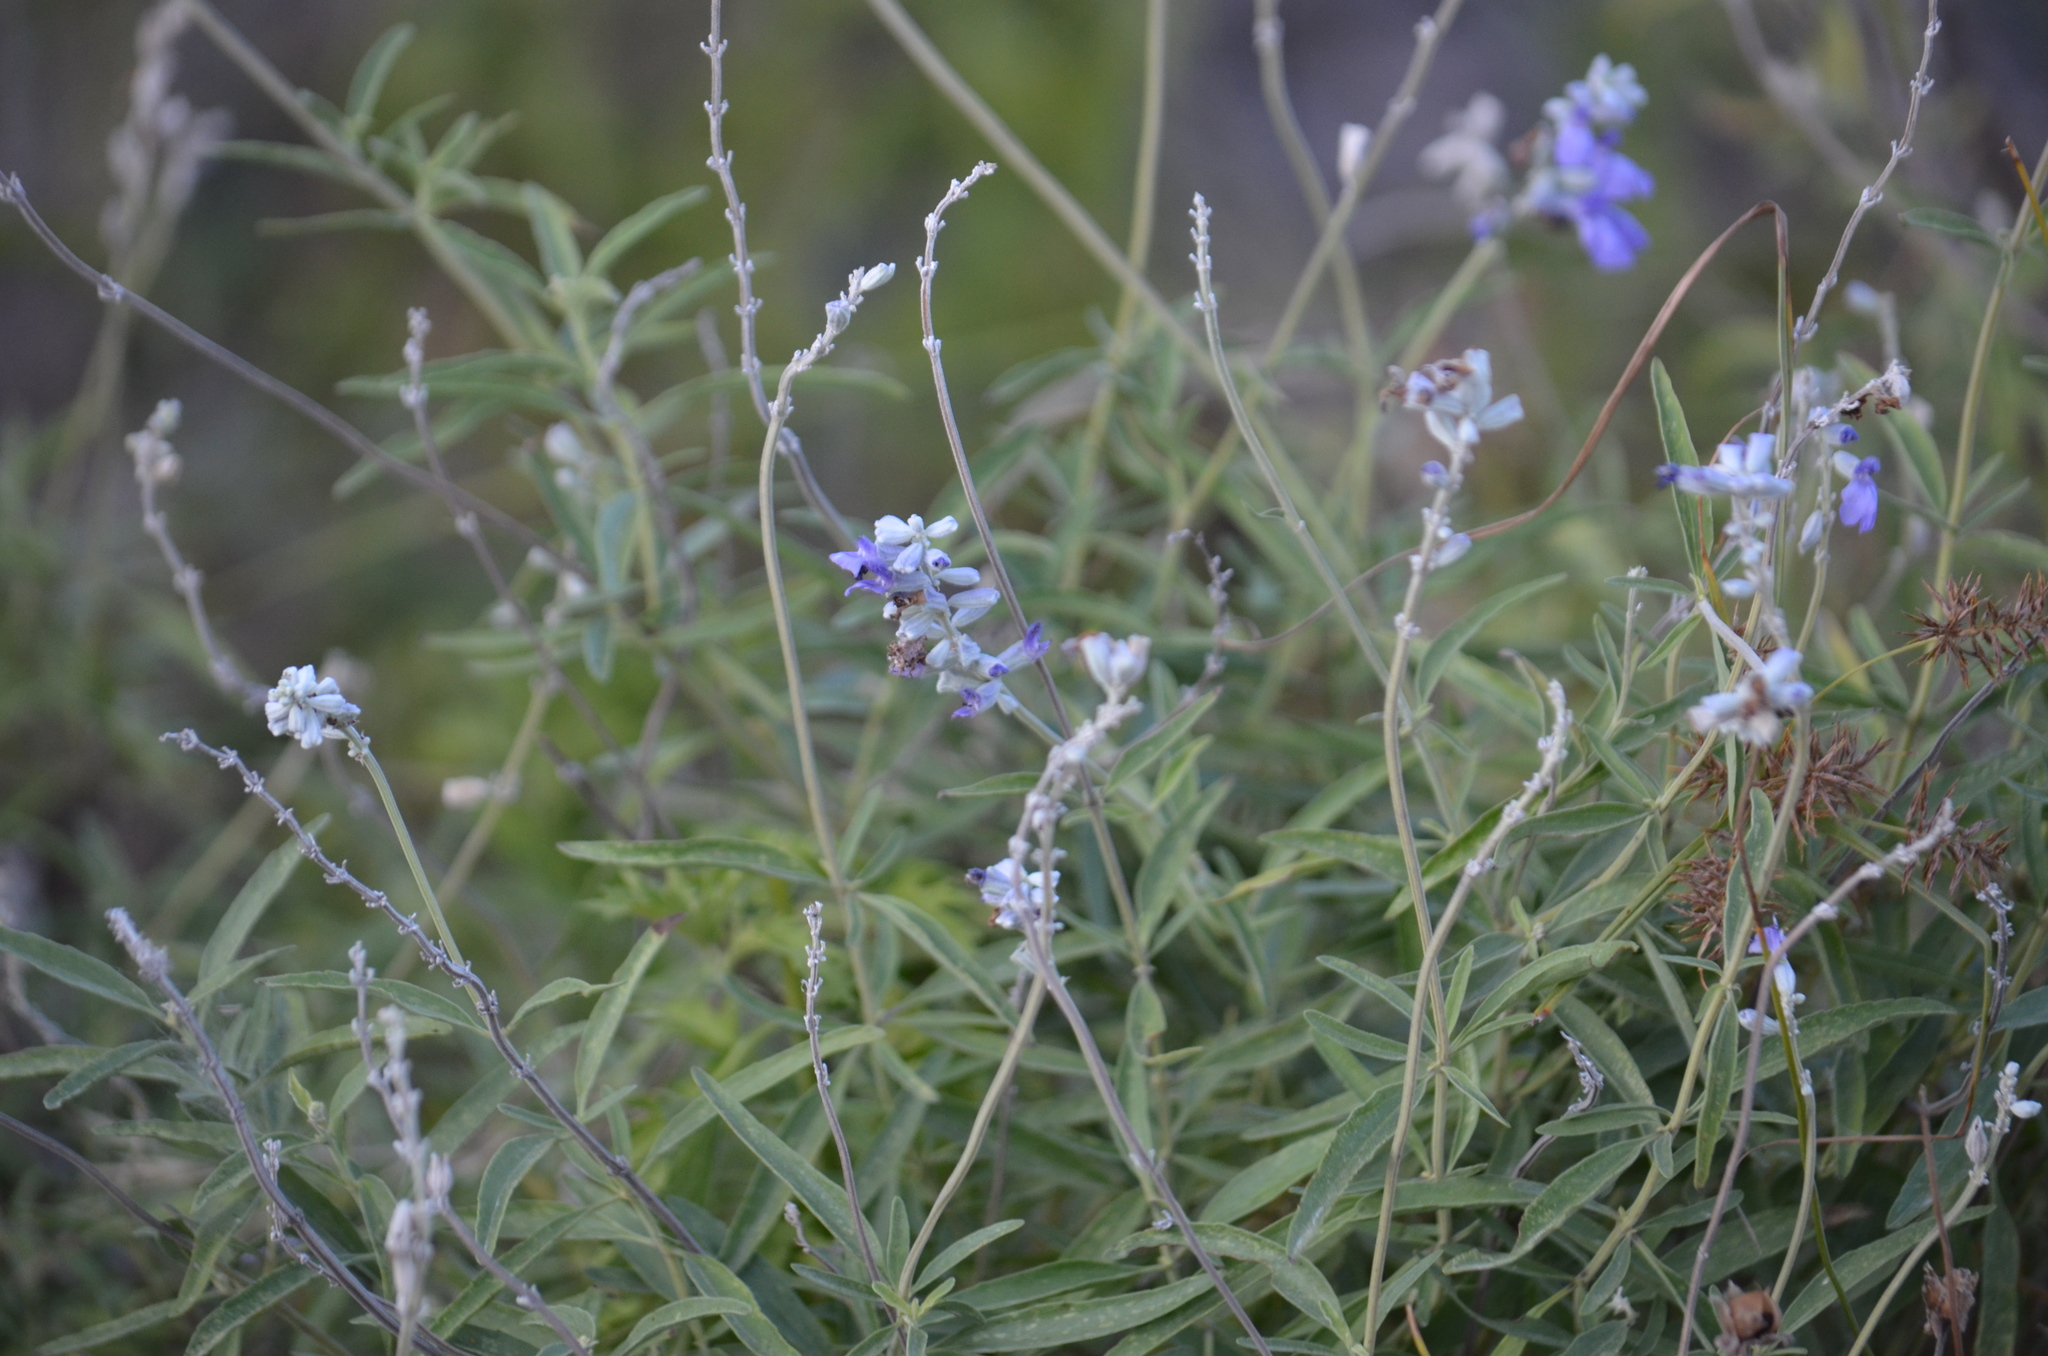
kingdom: Plantae
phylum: Tracheophyta
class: Magnoliopsida
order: Lamiales
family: Lamiaceae
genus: Salvia
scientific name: Salvia farinacea
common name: Mealy sage
